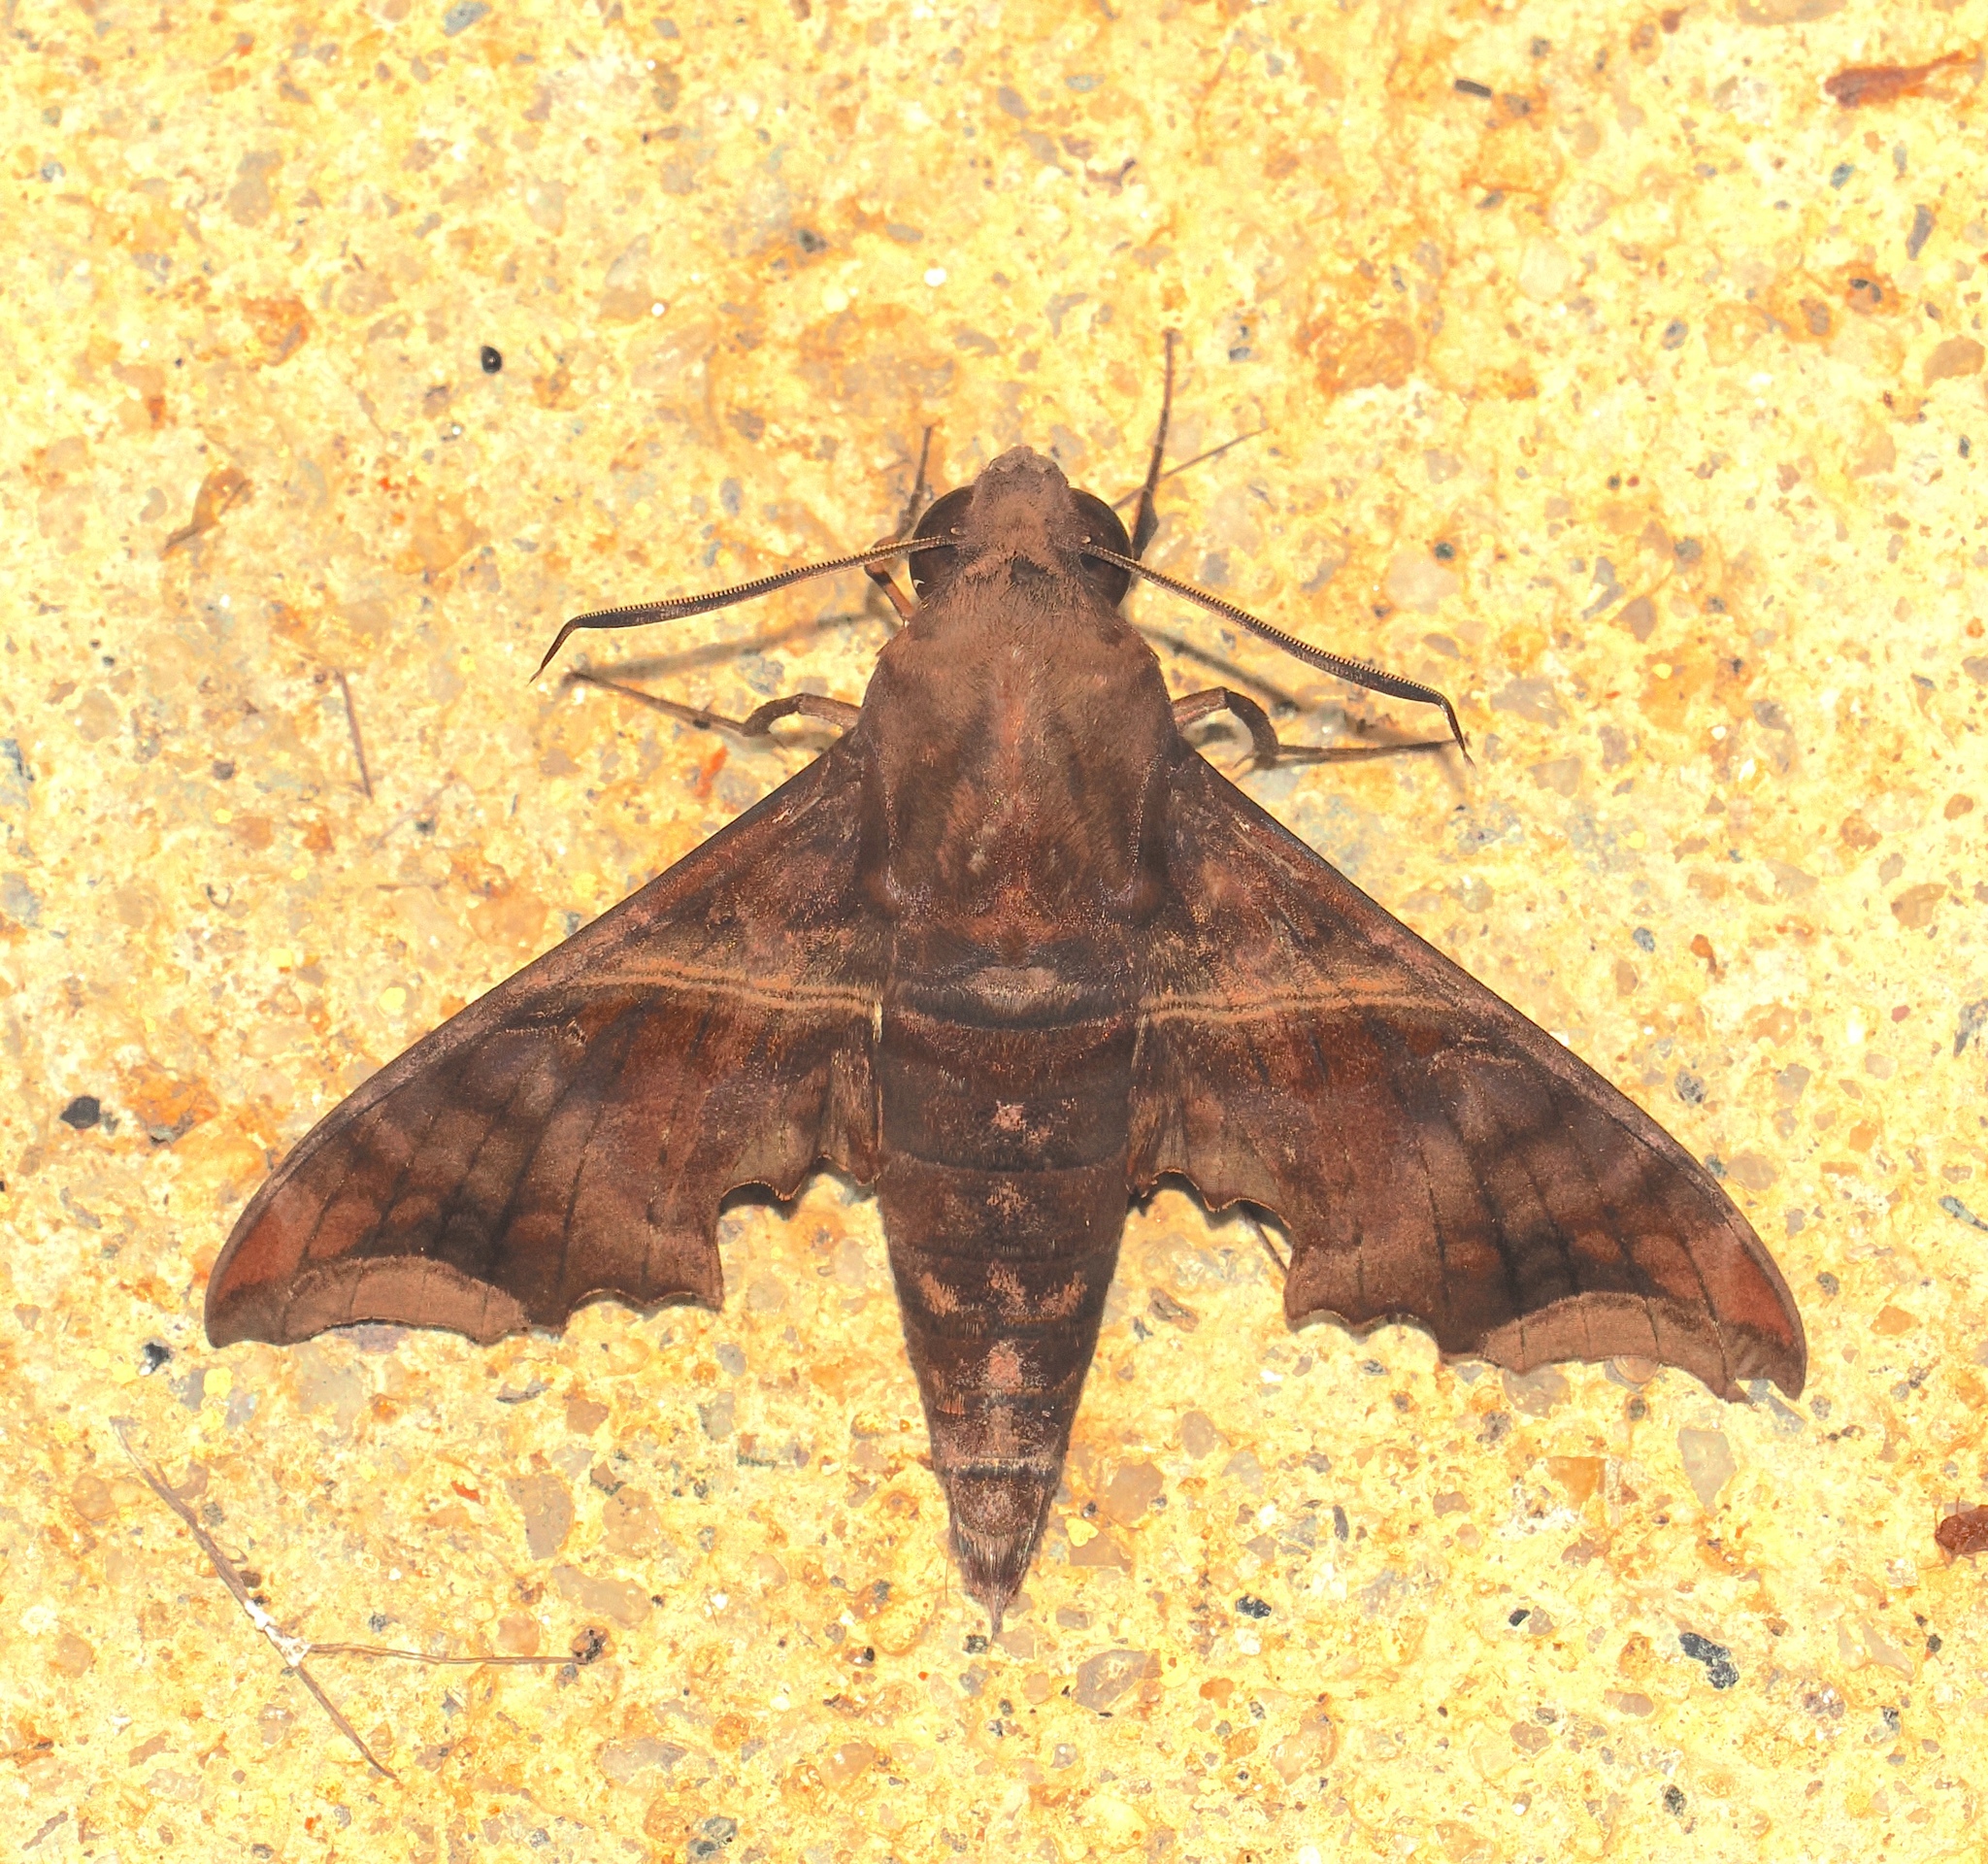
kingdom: Animalia
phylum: Arthropoda
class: Insecta
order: Lepidoptera
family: Sphingidae
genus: Enyo
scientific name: Enyo ocypete
